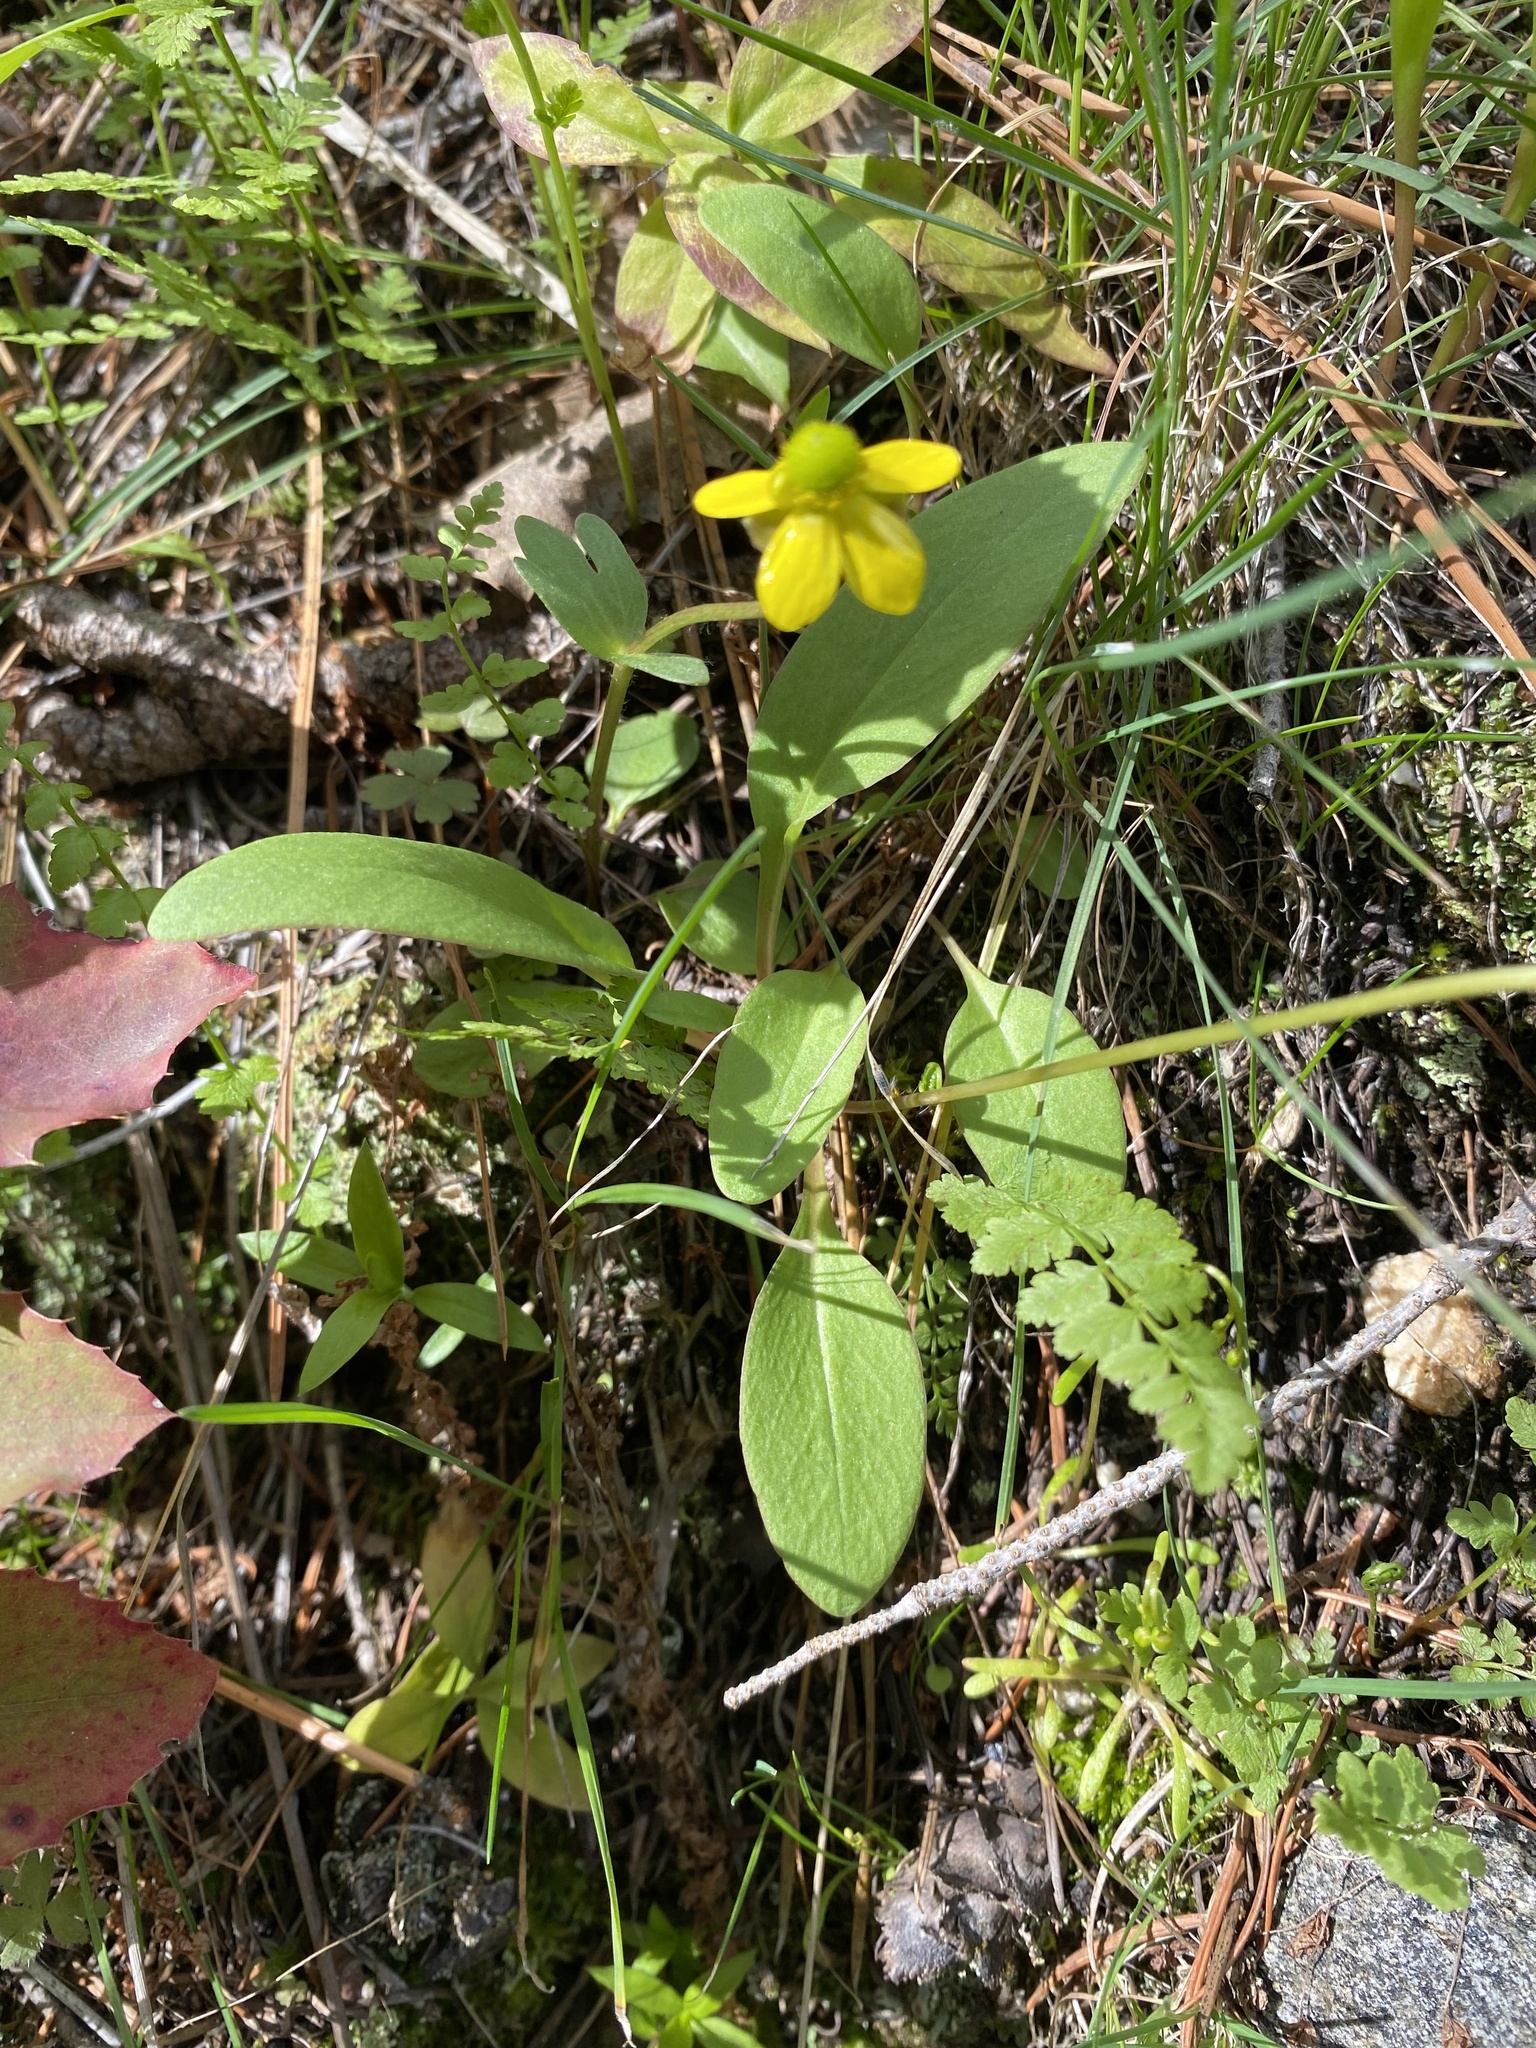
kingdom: Plantae
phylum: Tracheophyta
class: Magnoliopsida
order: Ericales
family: Primulaceae
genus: Dodecatheon
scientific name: Dodecatheon pulchellum
